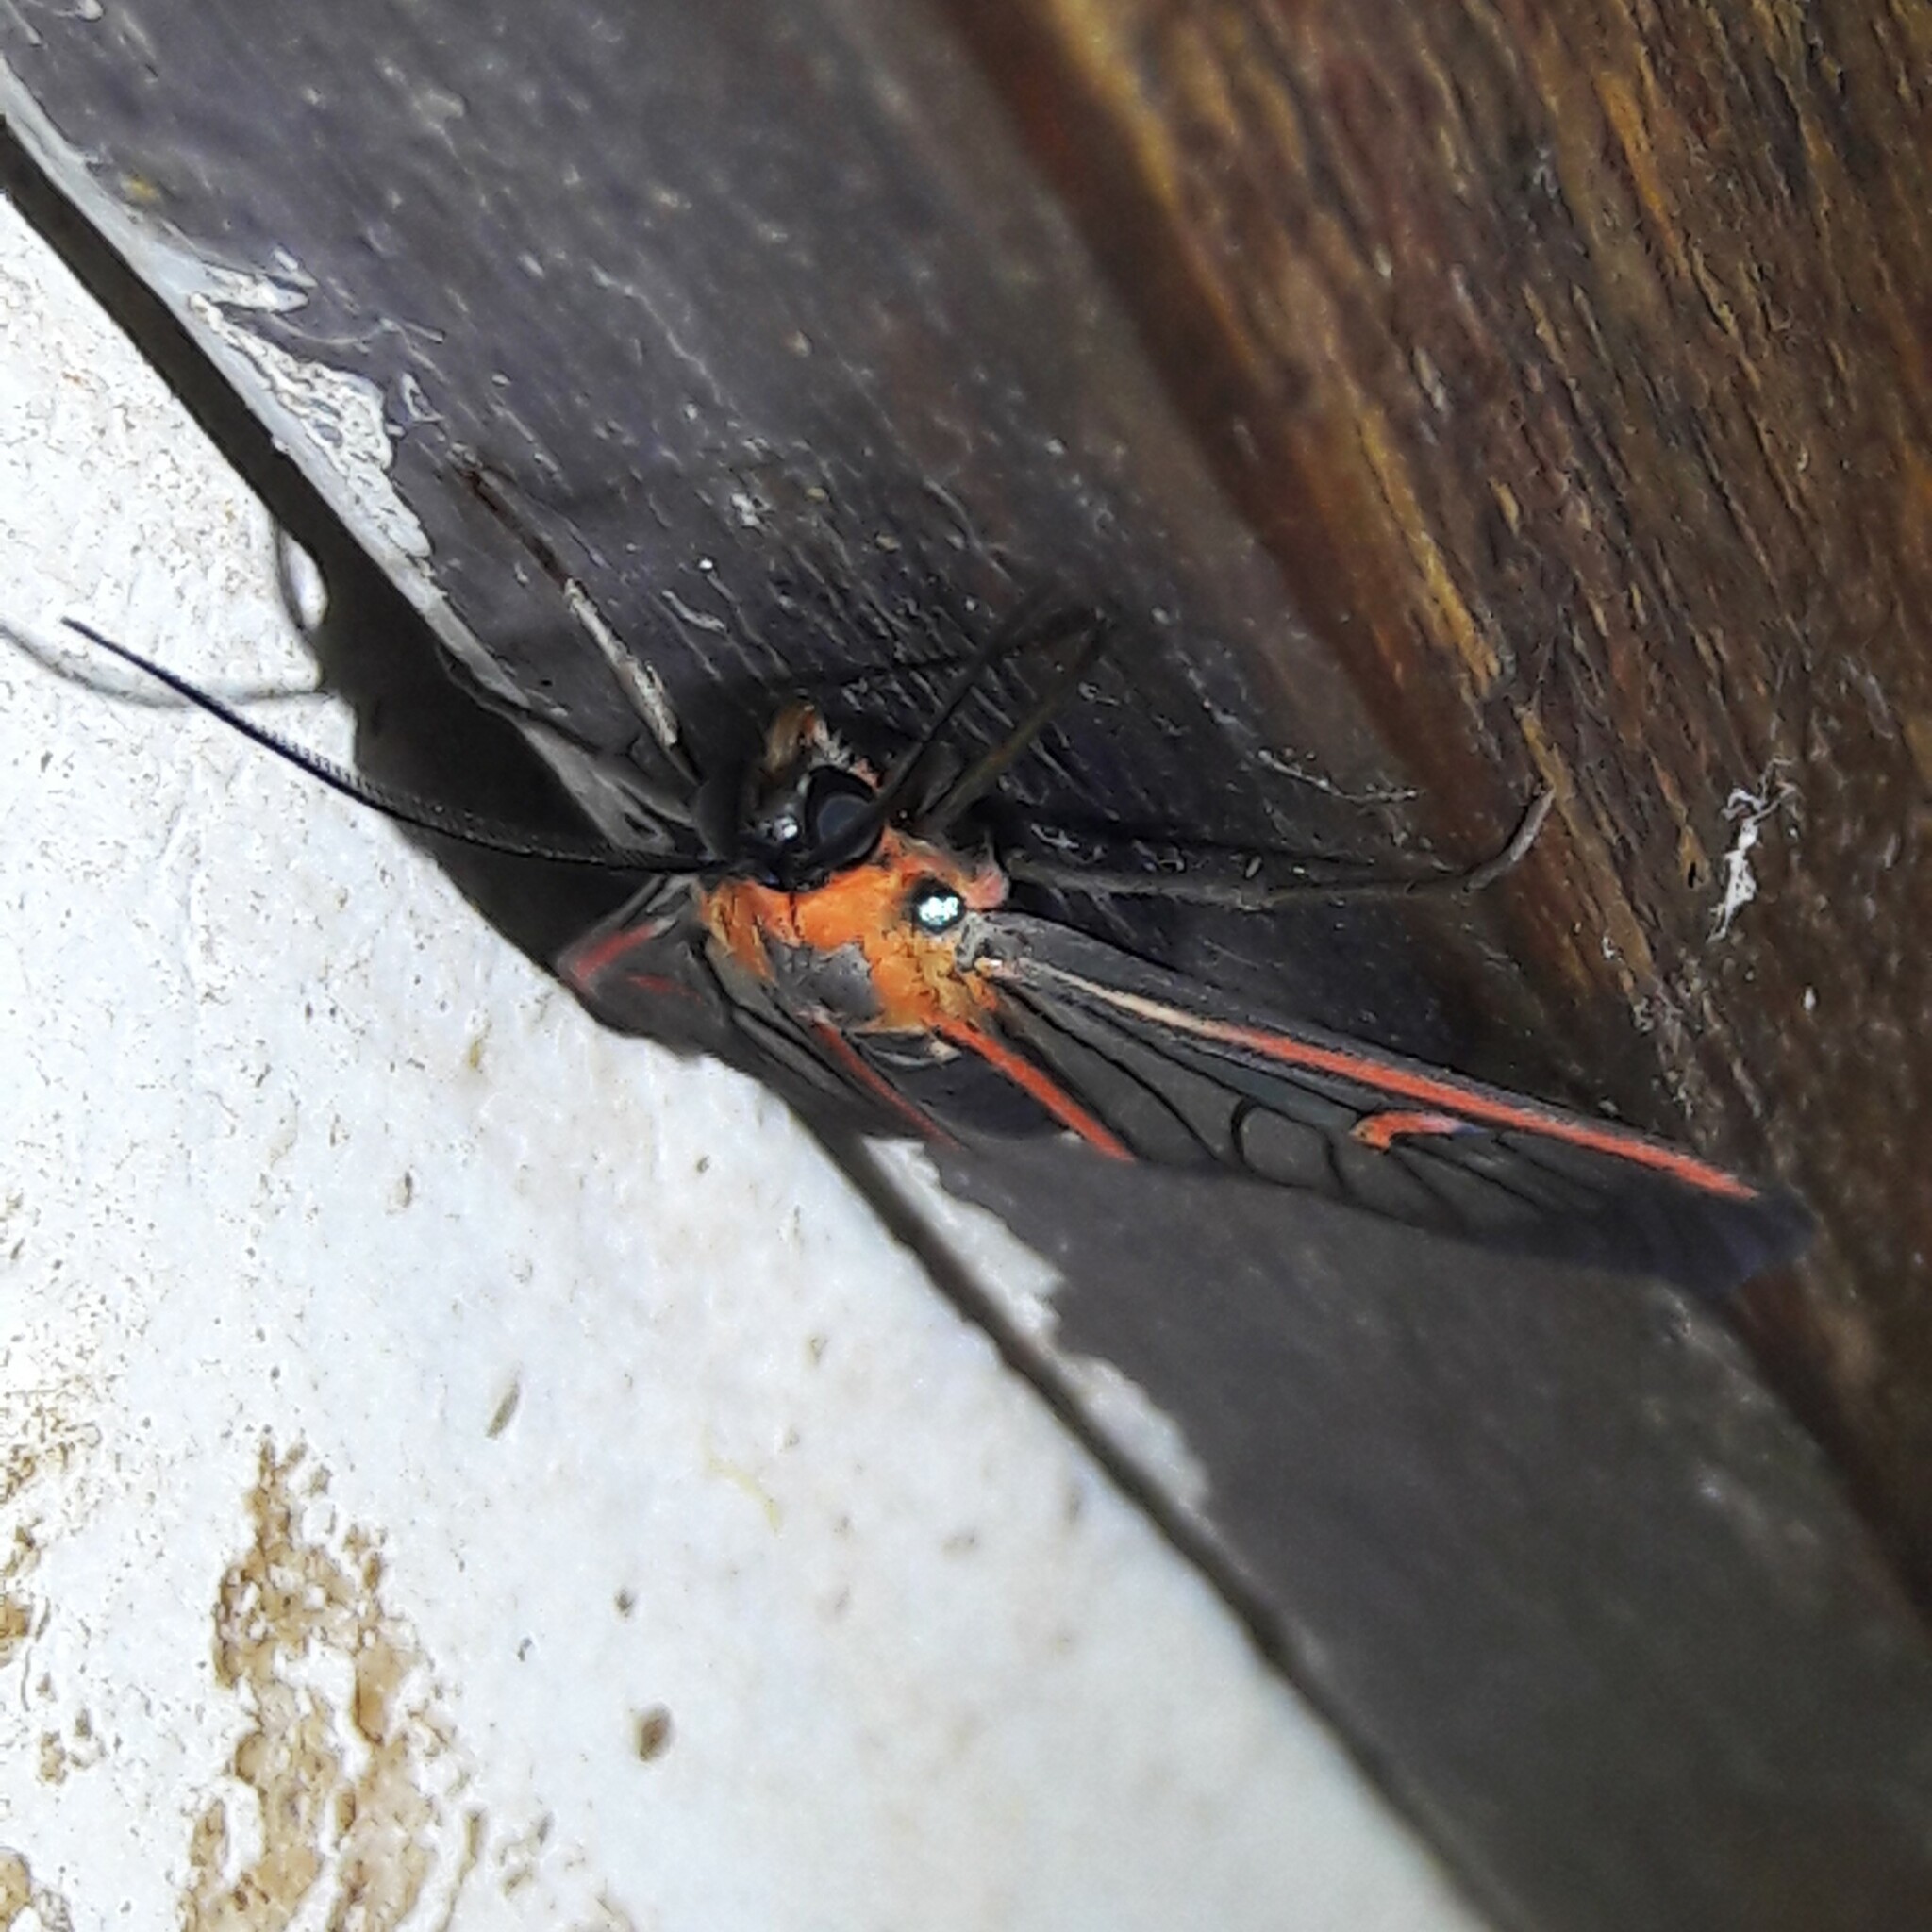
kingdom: Animalia
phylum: Arthropoda
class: Insecta
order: Lepidoptera
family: Erebidae
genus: Lepidoneiva
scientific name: Lepidoneiva erubescens
